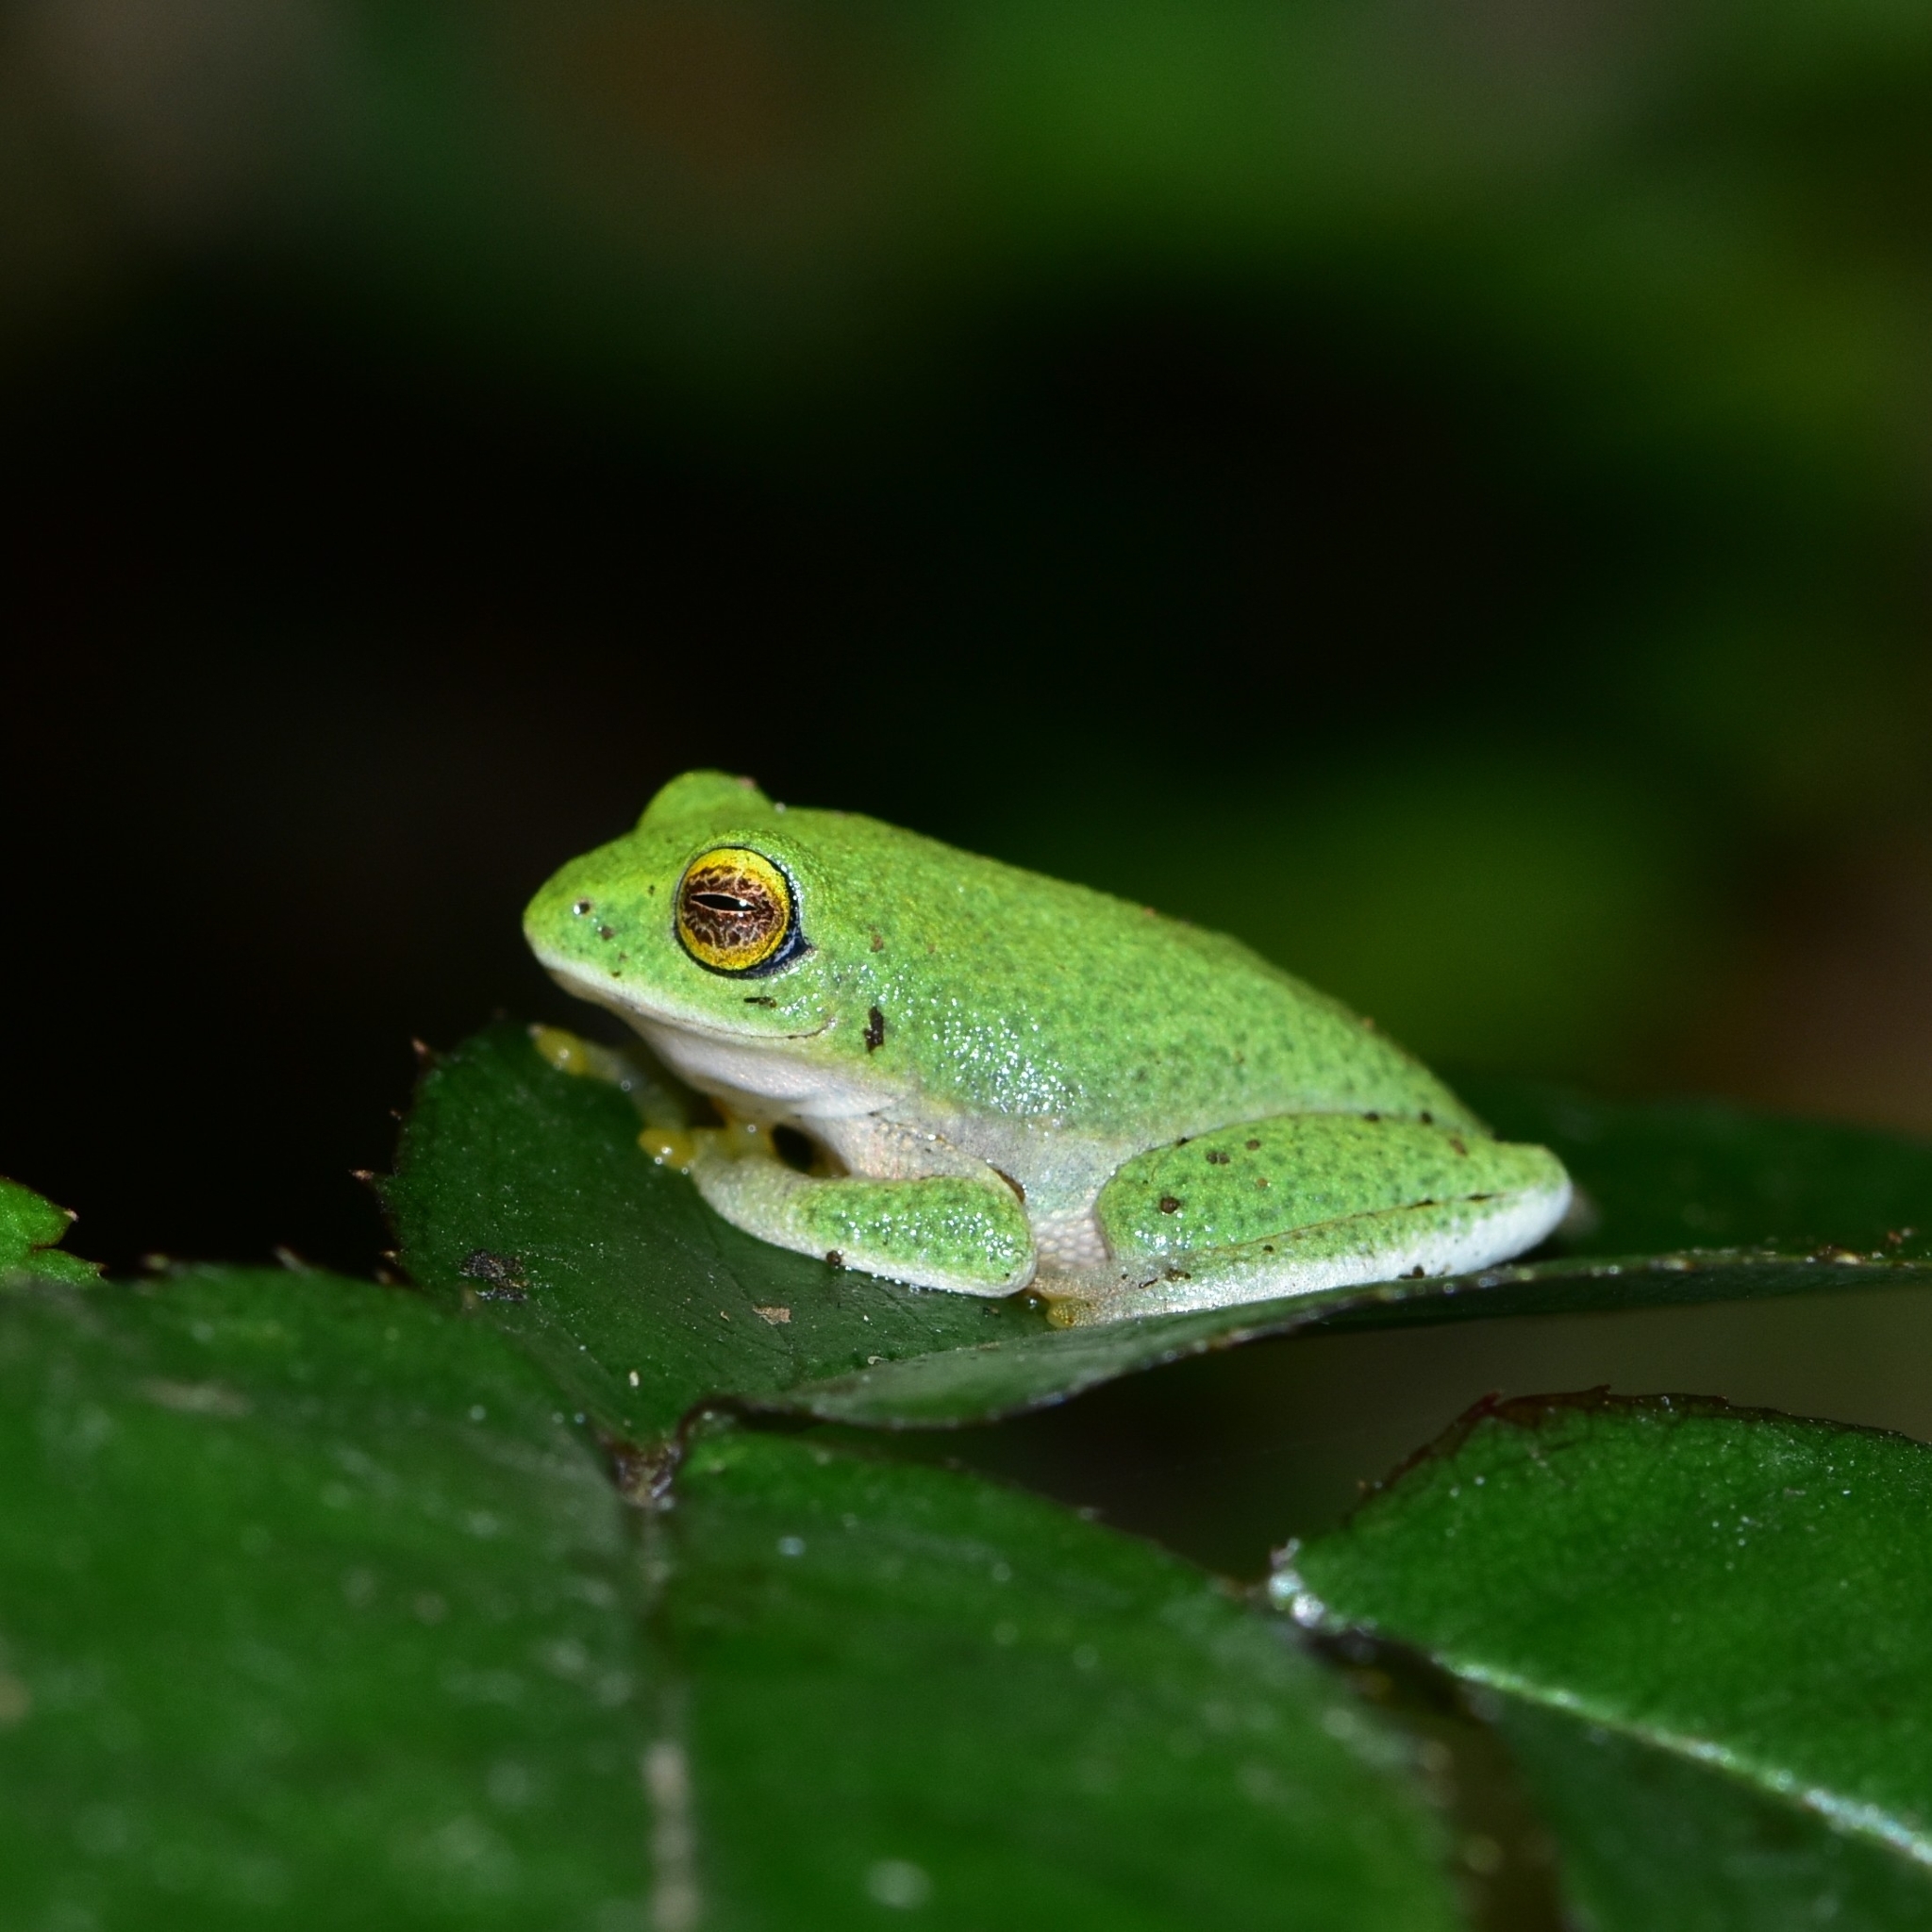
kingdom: Animalia
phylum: Chordata
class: Amphibia
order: Anura
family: Rhacophoridae
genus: Raorchestes
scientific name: Raorchestes jayarami
